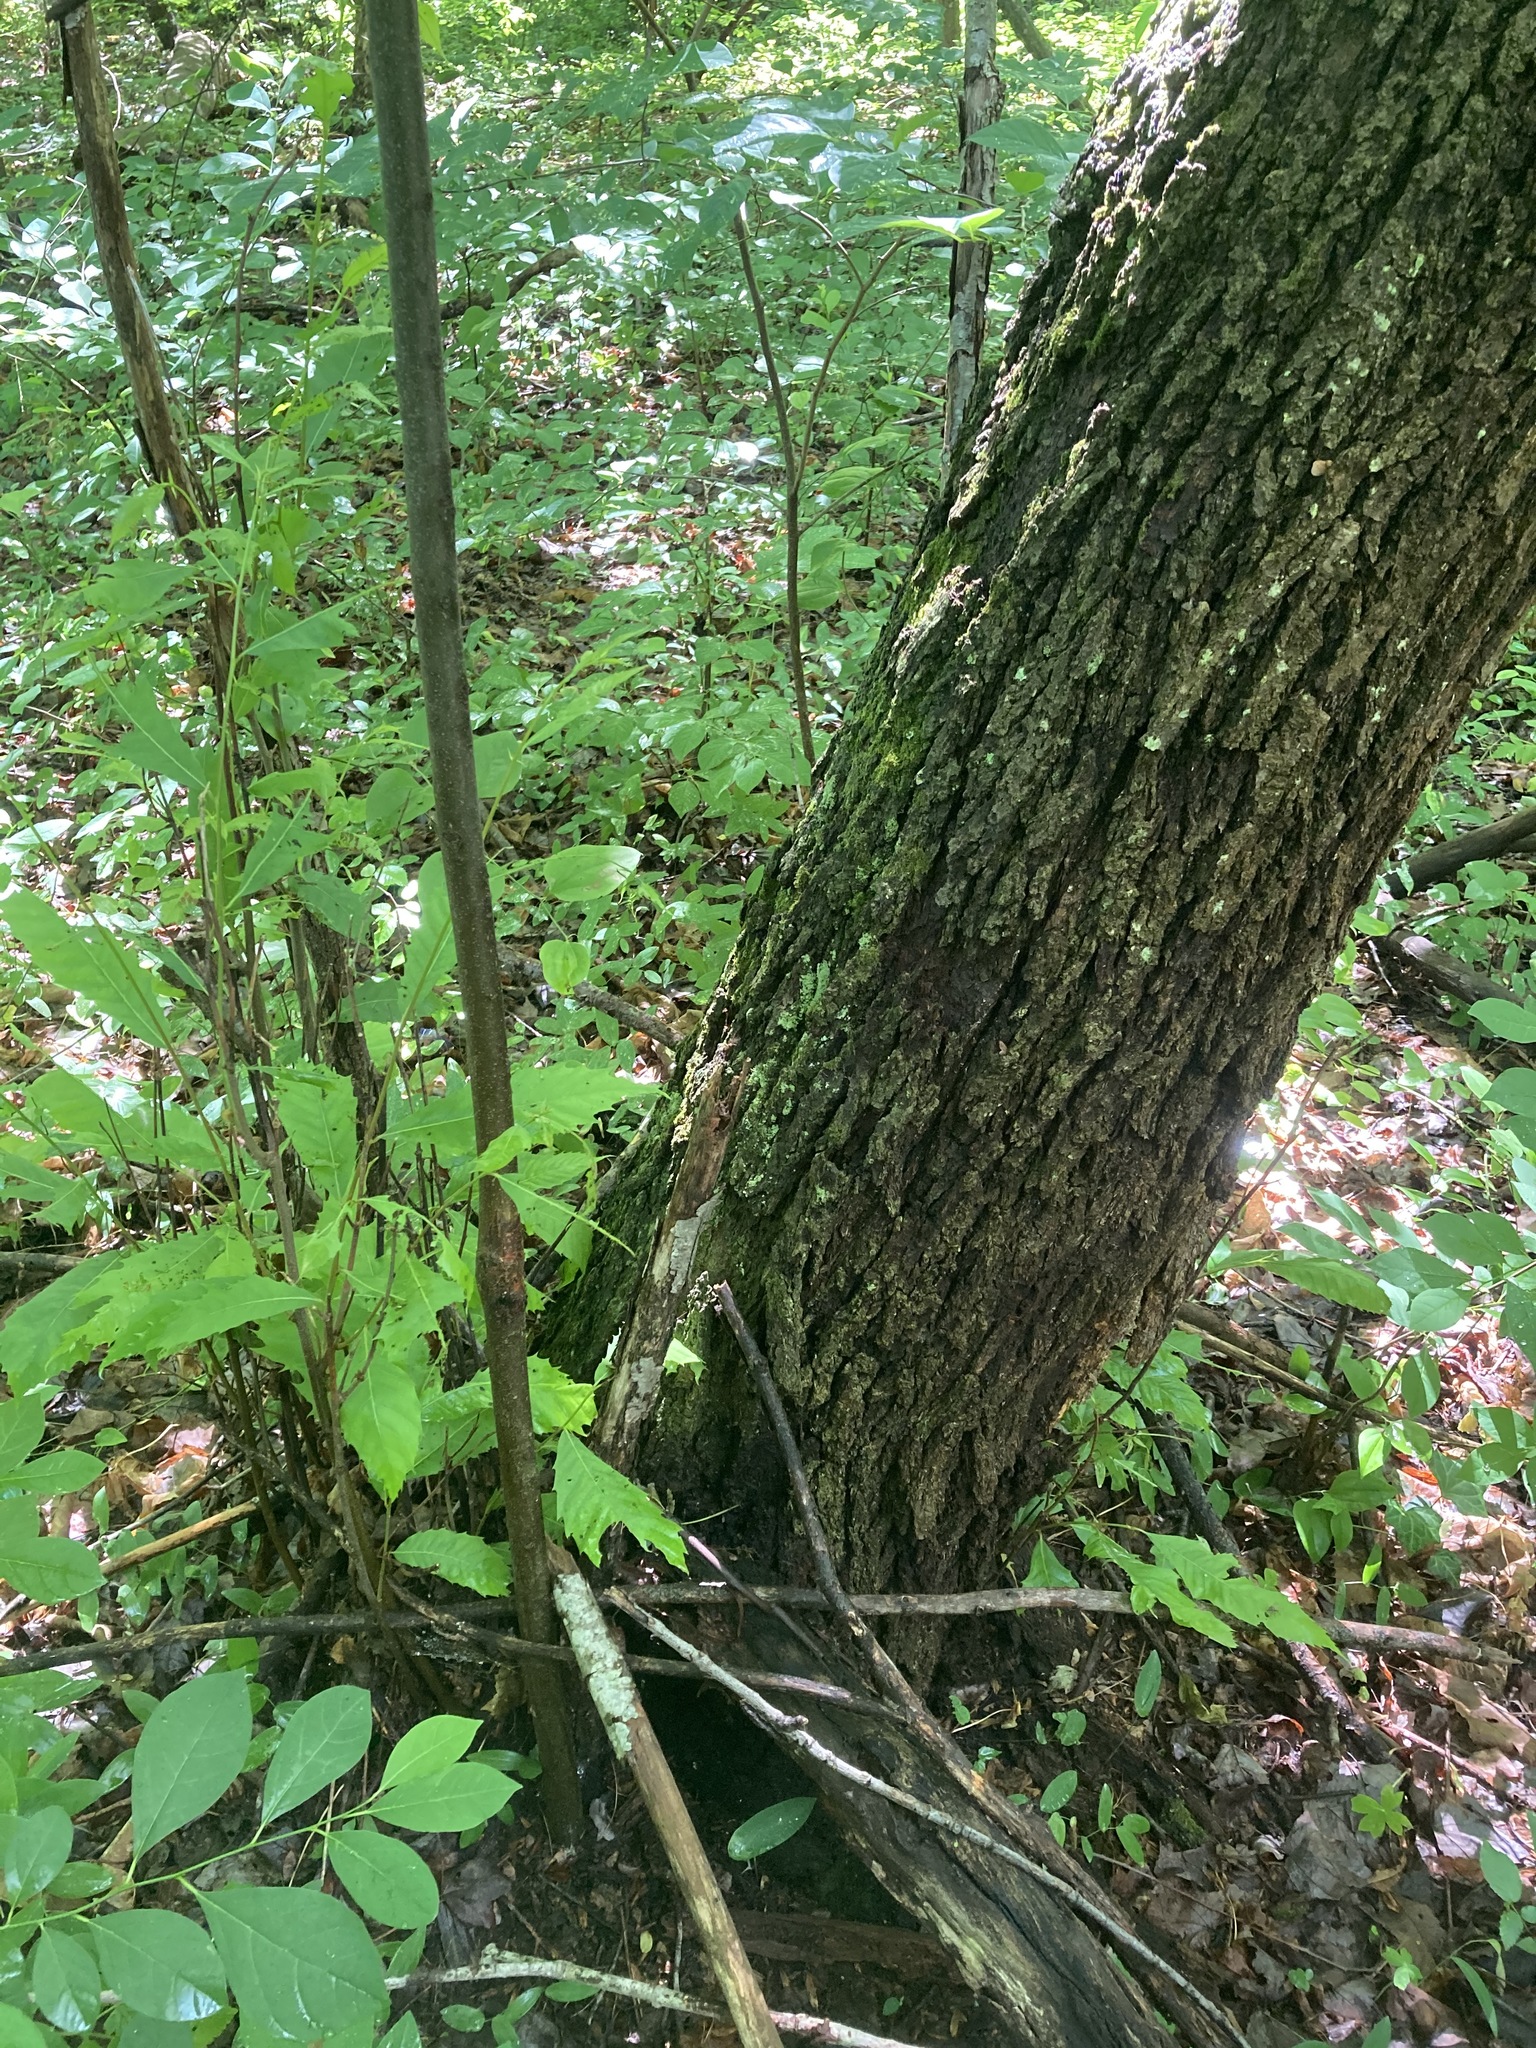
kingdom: Plantae
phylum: Tracheophyta
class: Magnoliopsida
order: Fagales
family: Fagaceae
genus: Castanea
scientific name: Castanea dentata
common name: American chestnut
